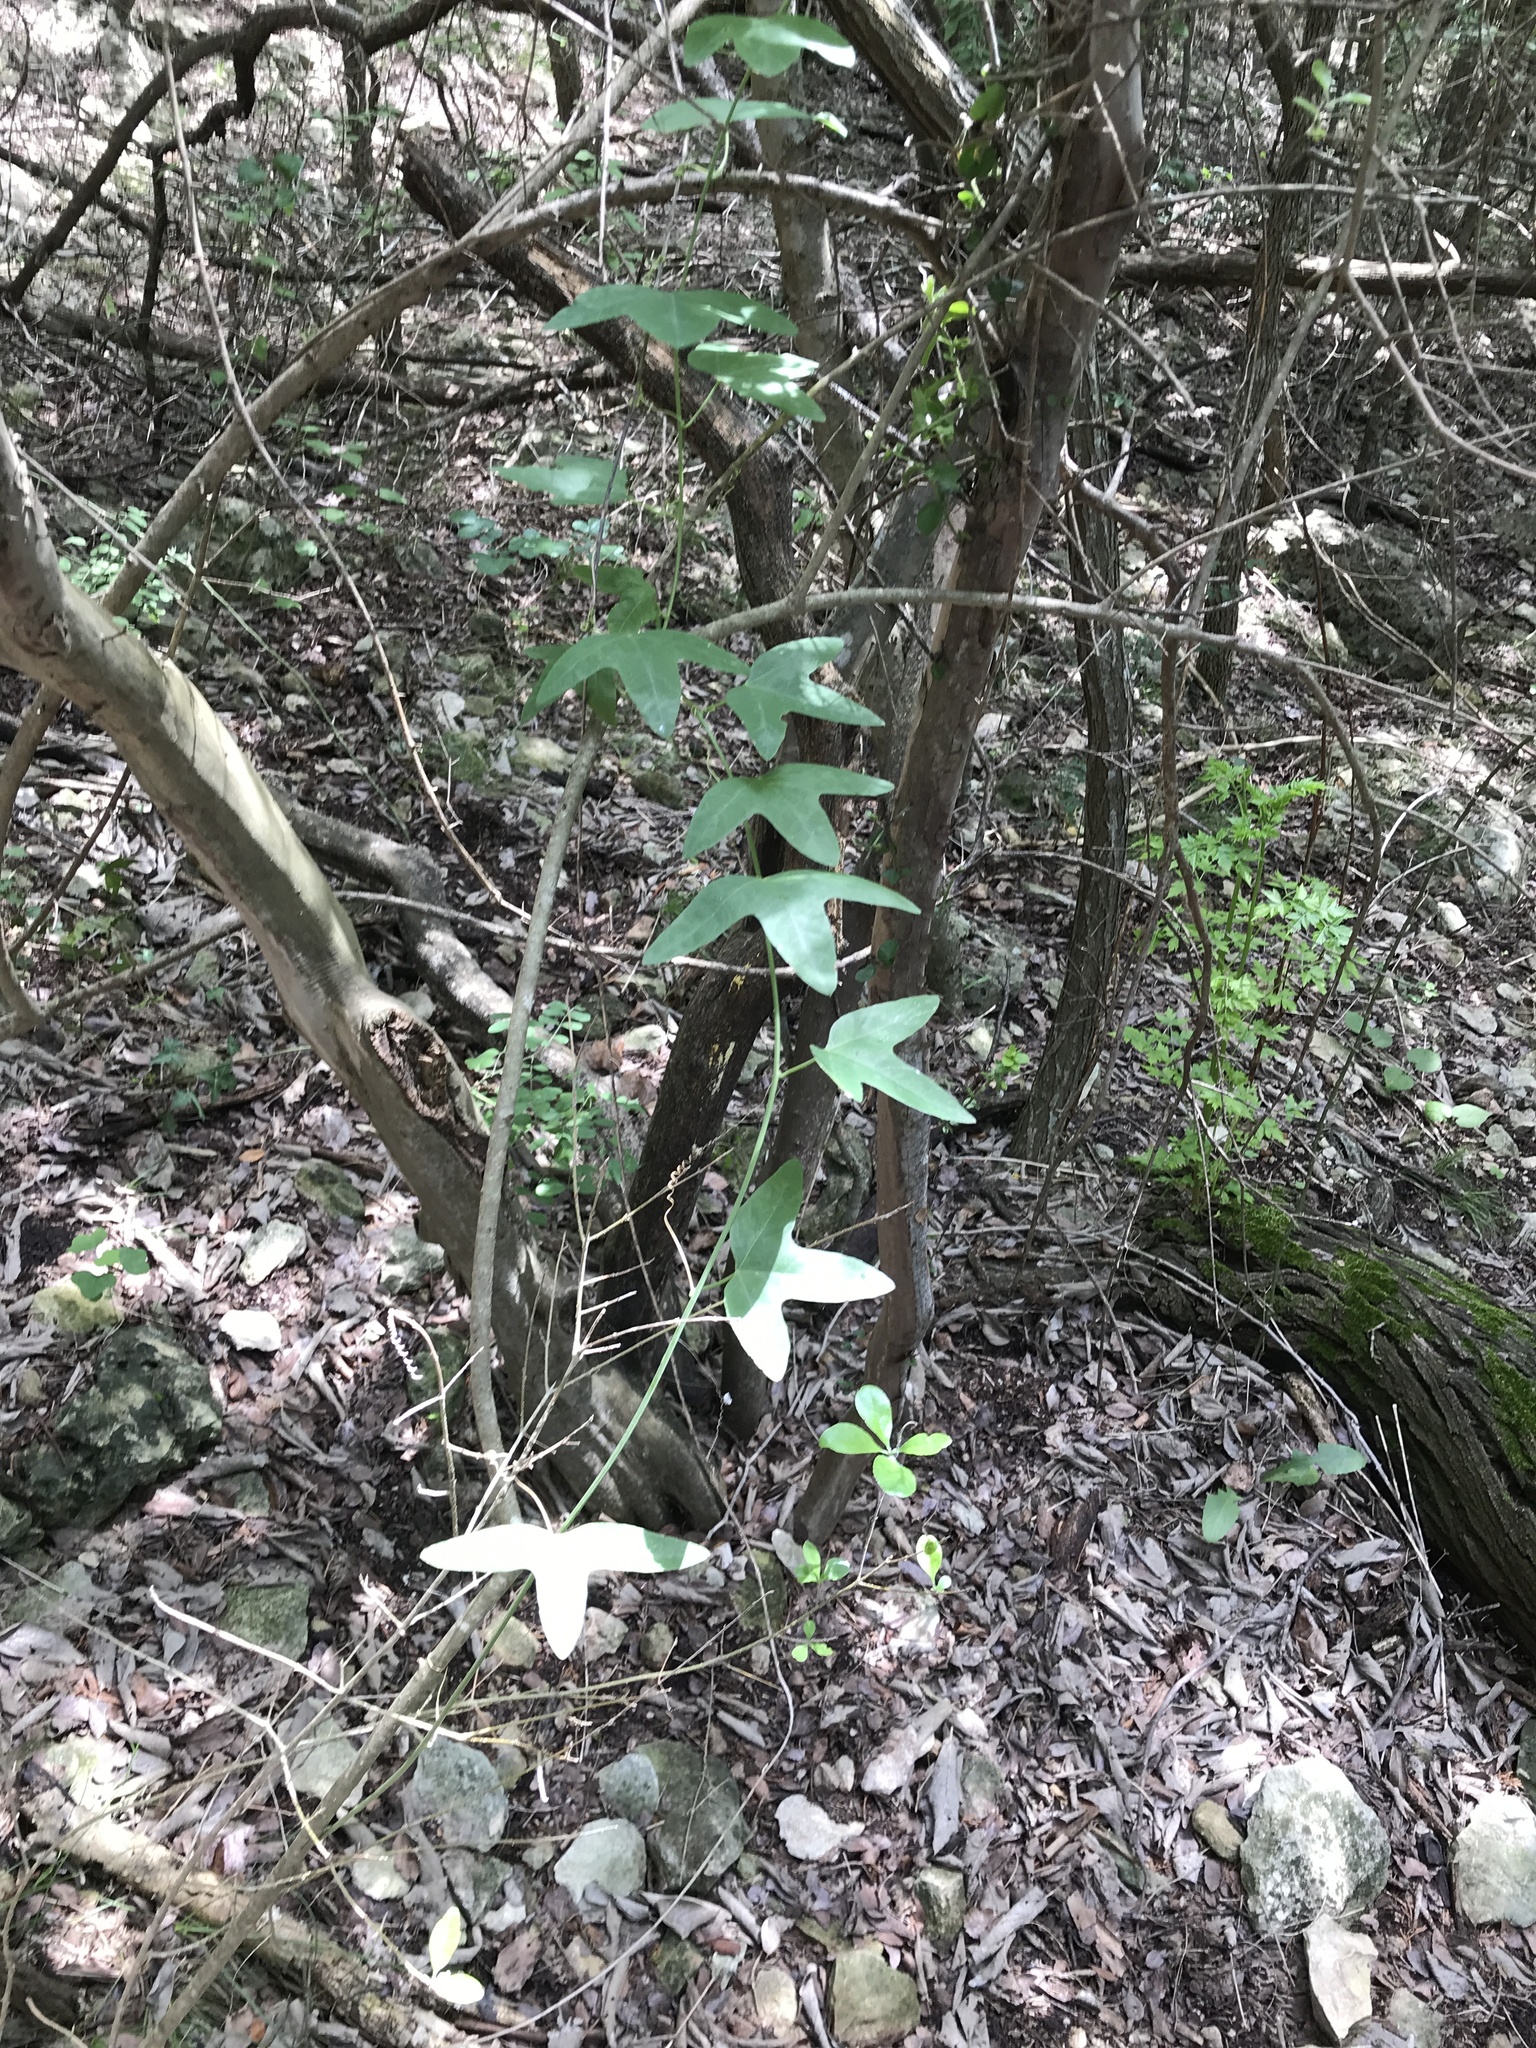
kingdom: Plantae
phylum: Tracheophyta
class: Magnoliopsida
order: Malpighiales
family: Passifloraceae
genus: Passiflora
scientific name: Passiflora lutea
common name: Yellow passionflower
